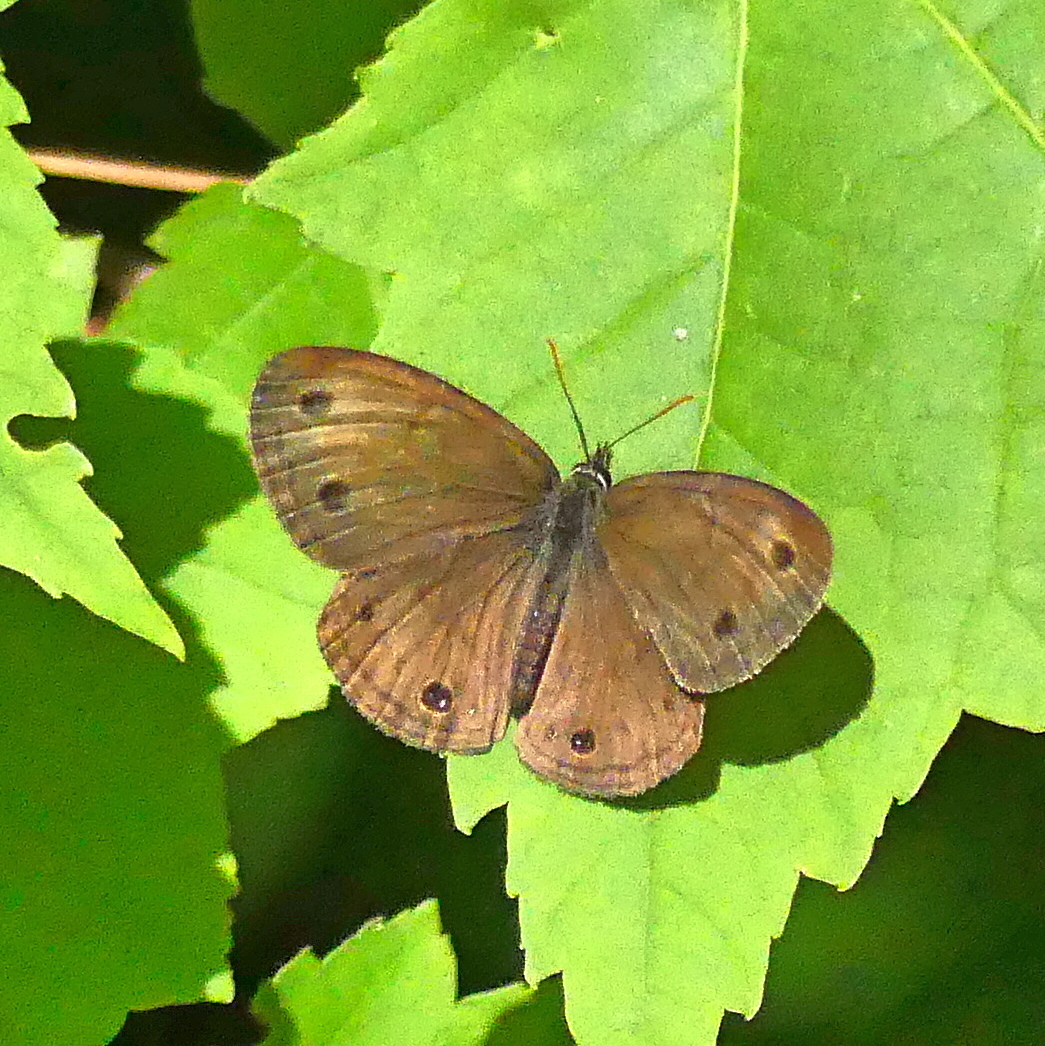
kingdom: Animalia
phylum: Arthropoda
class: Insecta
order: Lepidoptera
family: Nymphalidae
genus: Euptychia
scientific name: Euptychia cymela
